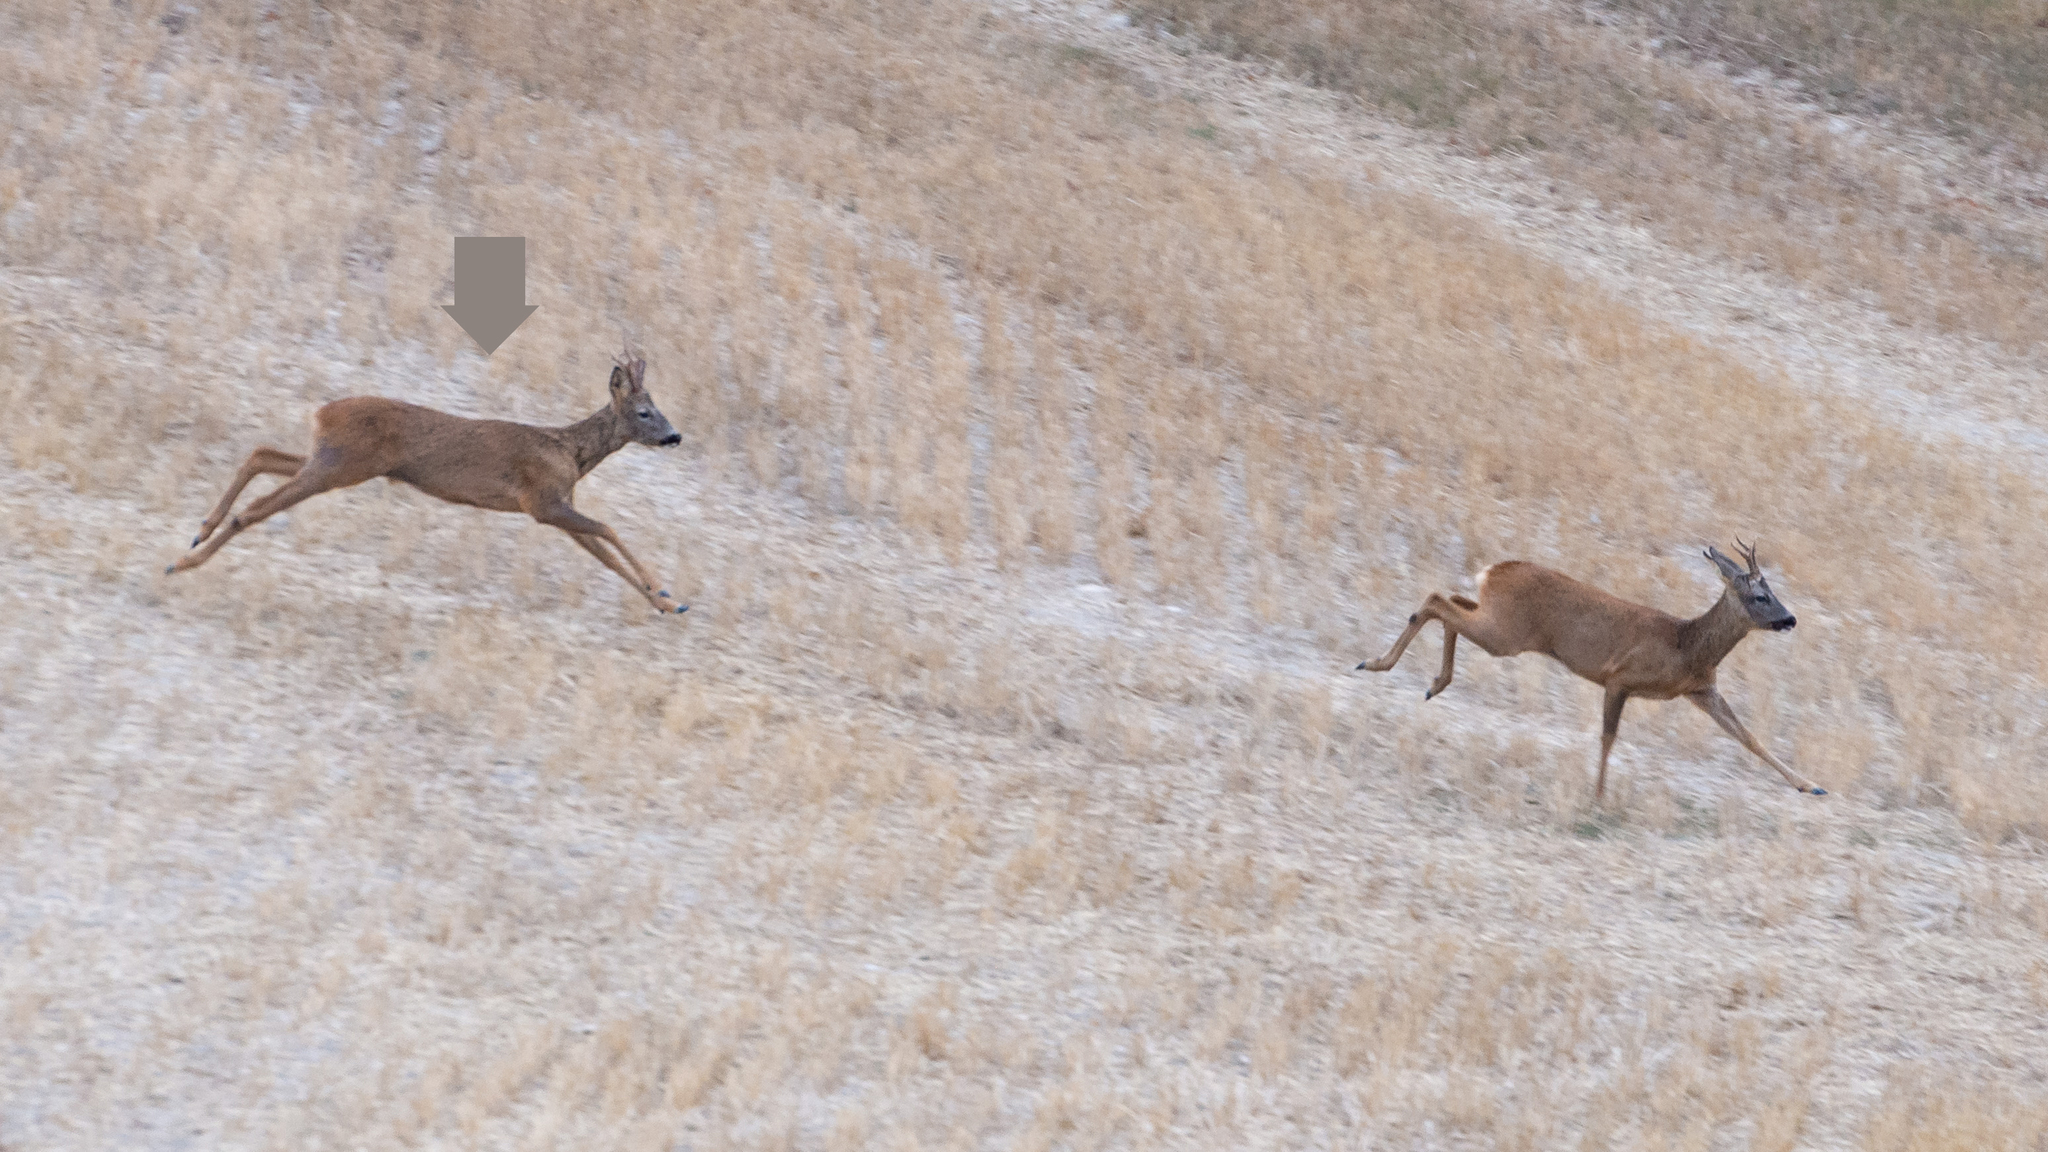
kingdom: Animalia
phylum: Chordata
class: Mammalia
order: Artiodactyla
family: Cervidae
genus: Capreolus
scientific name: Capreolus capreolus
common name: Western roe deer
